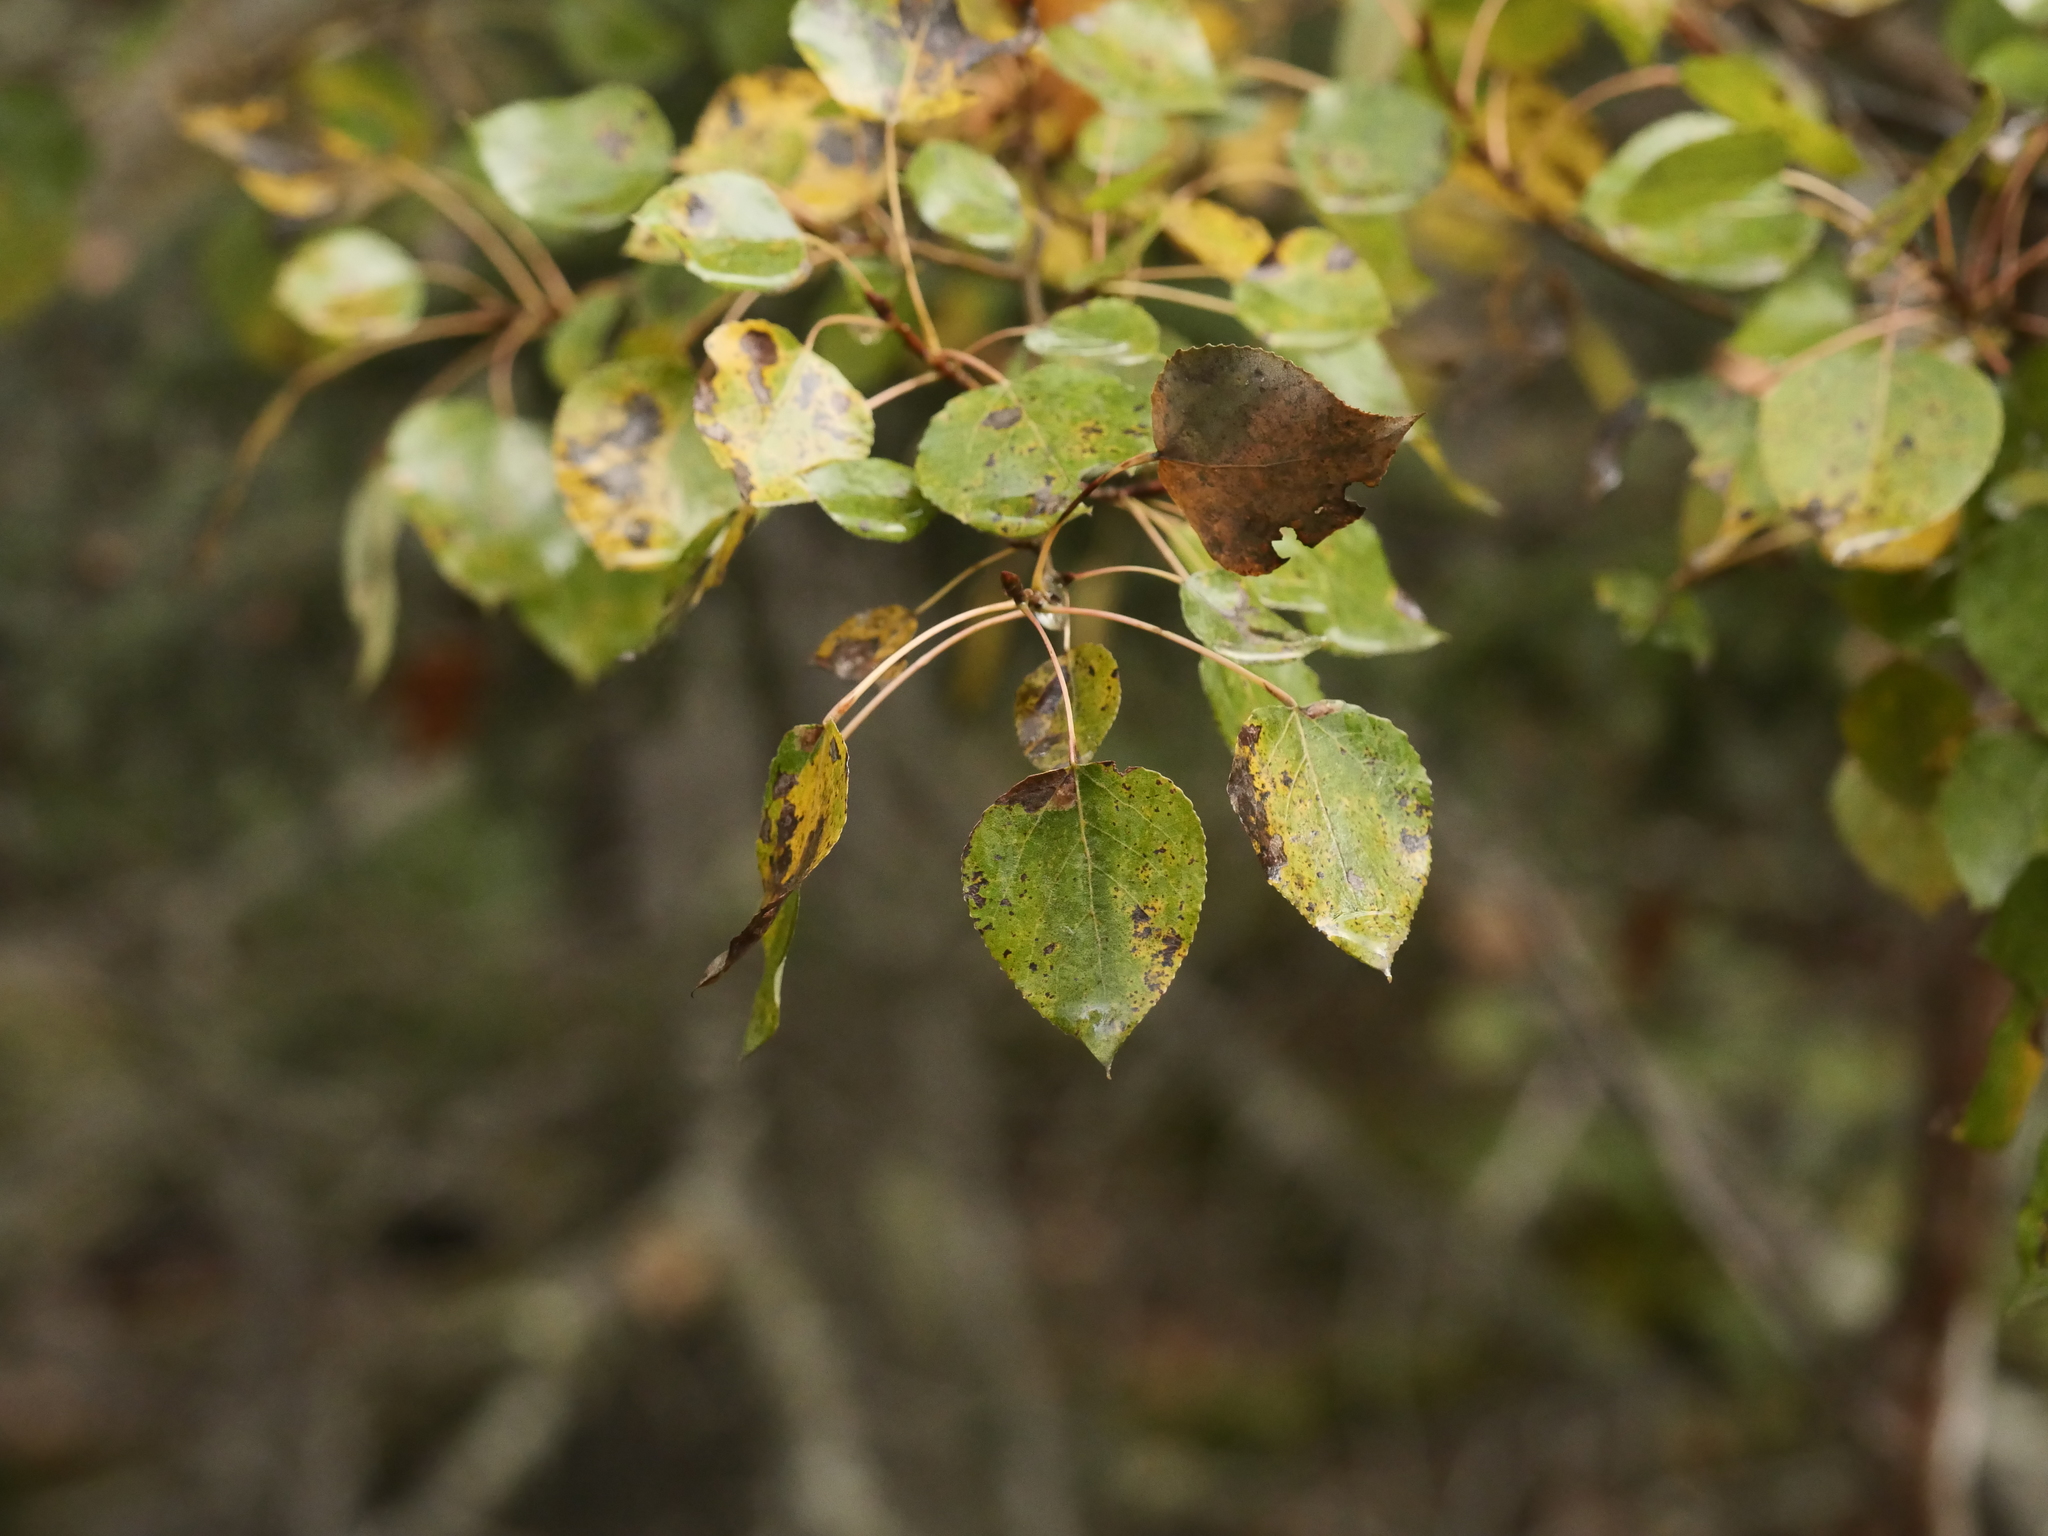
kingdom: Plantae
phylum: Tracheophyta
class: Magnoliopsida
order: Malpighiales
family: Salicaceae
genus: Populus
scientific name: Populus tremuloides
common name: Quaking aspen
